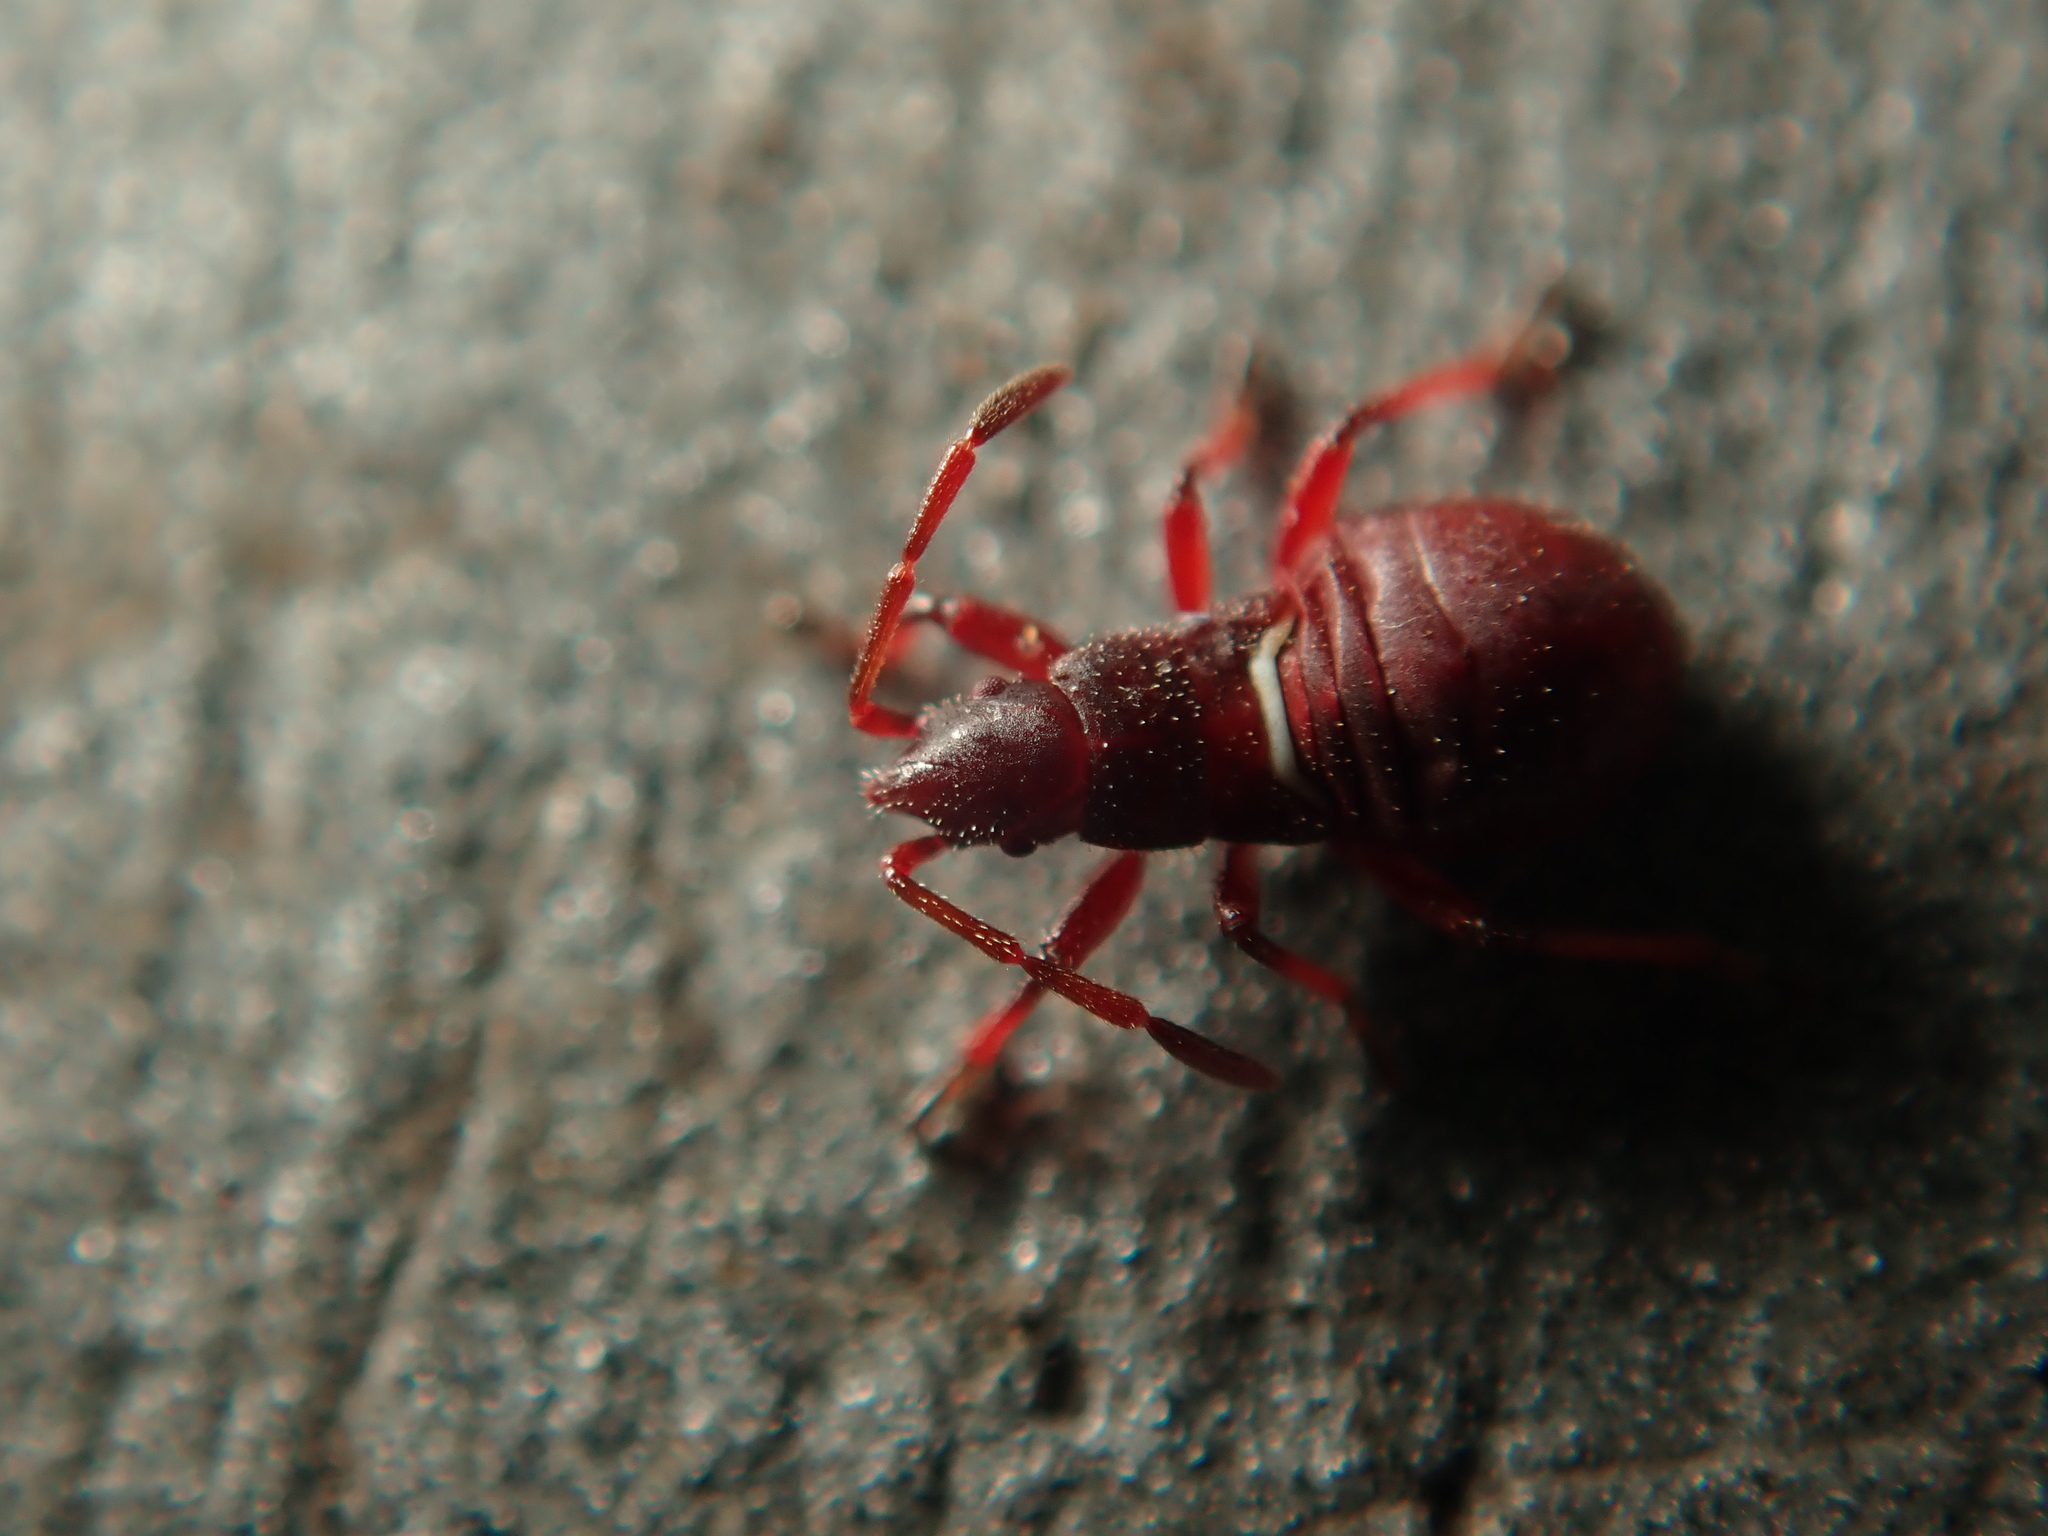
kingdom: Animalia
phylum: Arthropoda
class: Insecta
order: Hemiptera
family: Oxycarenidae
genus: Oxycarenus
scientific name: Oxycarenus lavaterae
